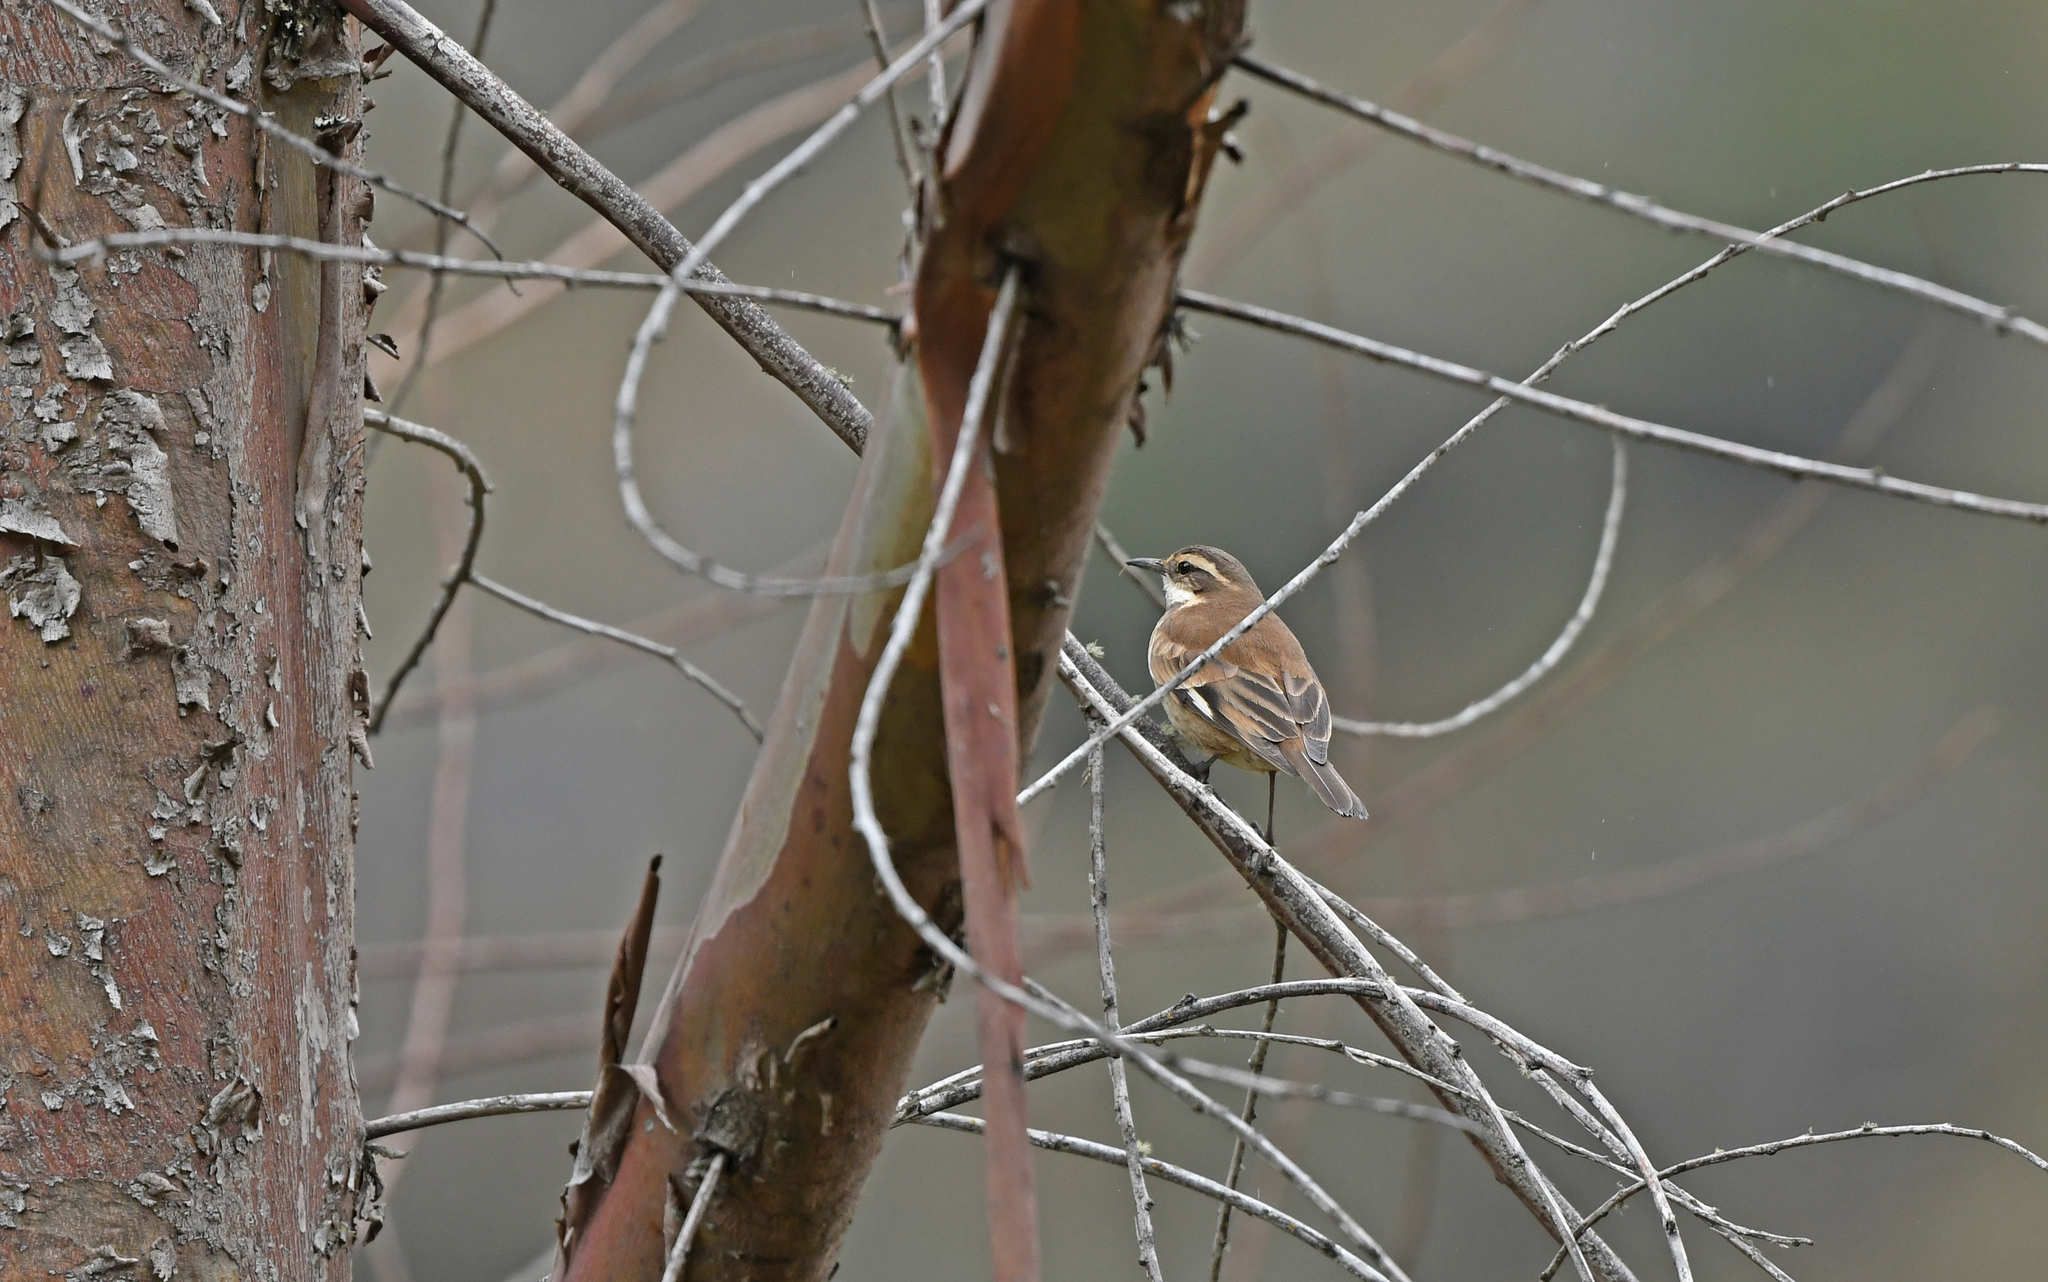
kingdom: Animalia
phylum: Chordata
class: Aves
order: Passeriformes
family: Furnariidae
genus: Cinclodes
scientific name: Cinclodes fuscus
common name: Buff-winged cinclodes
